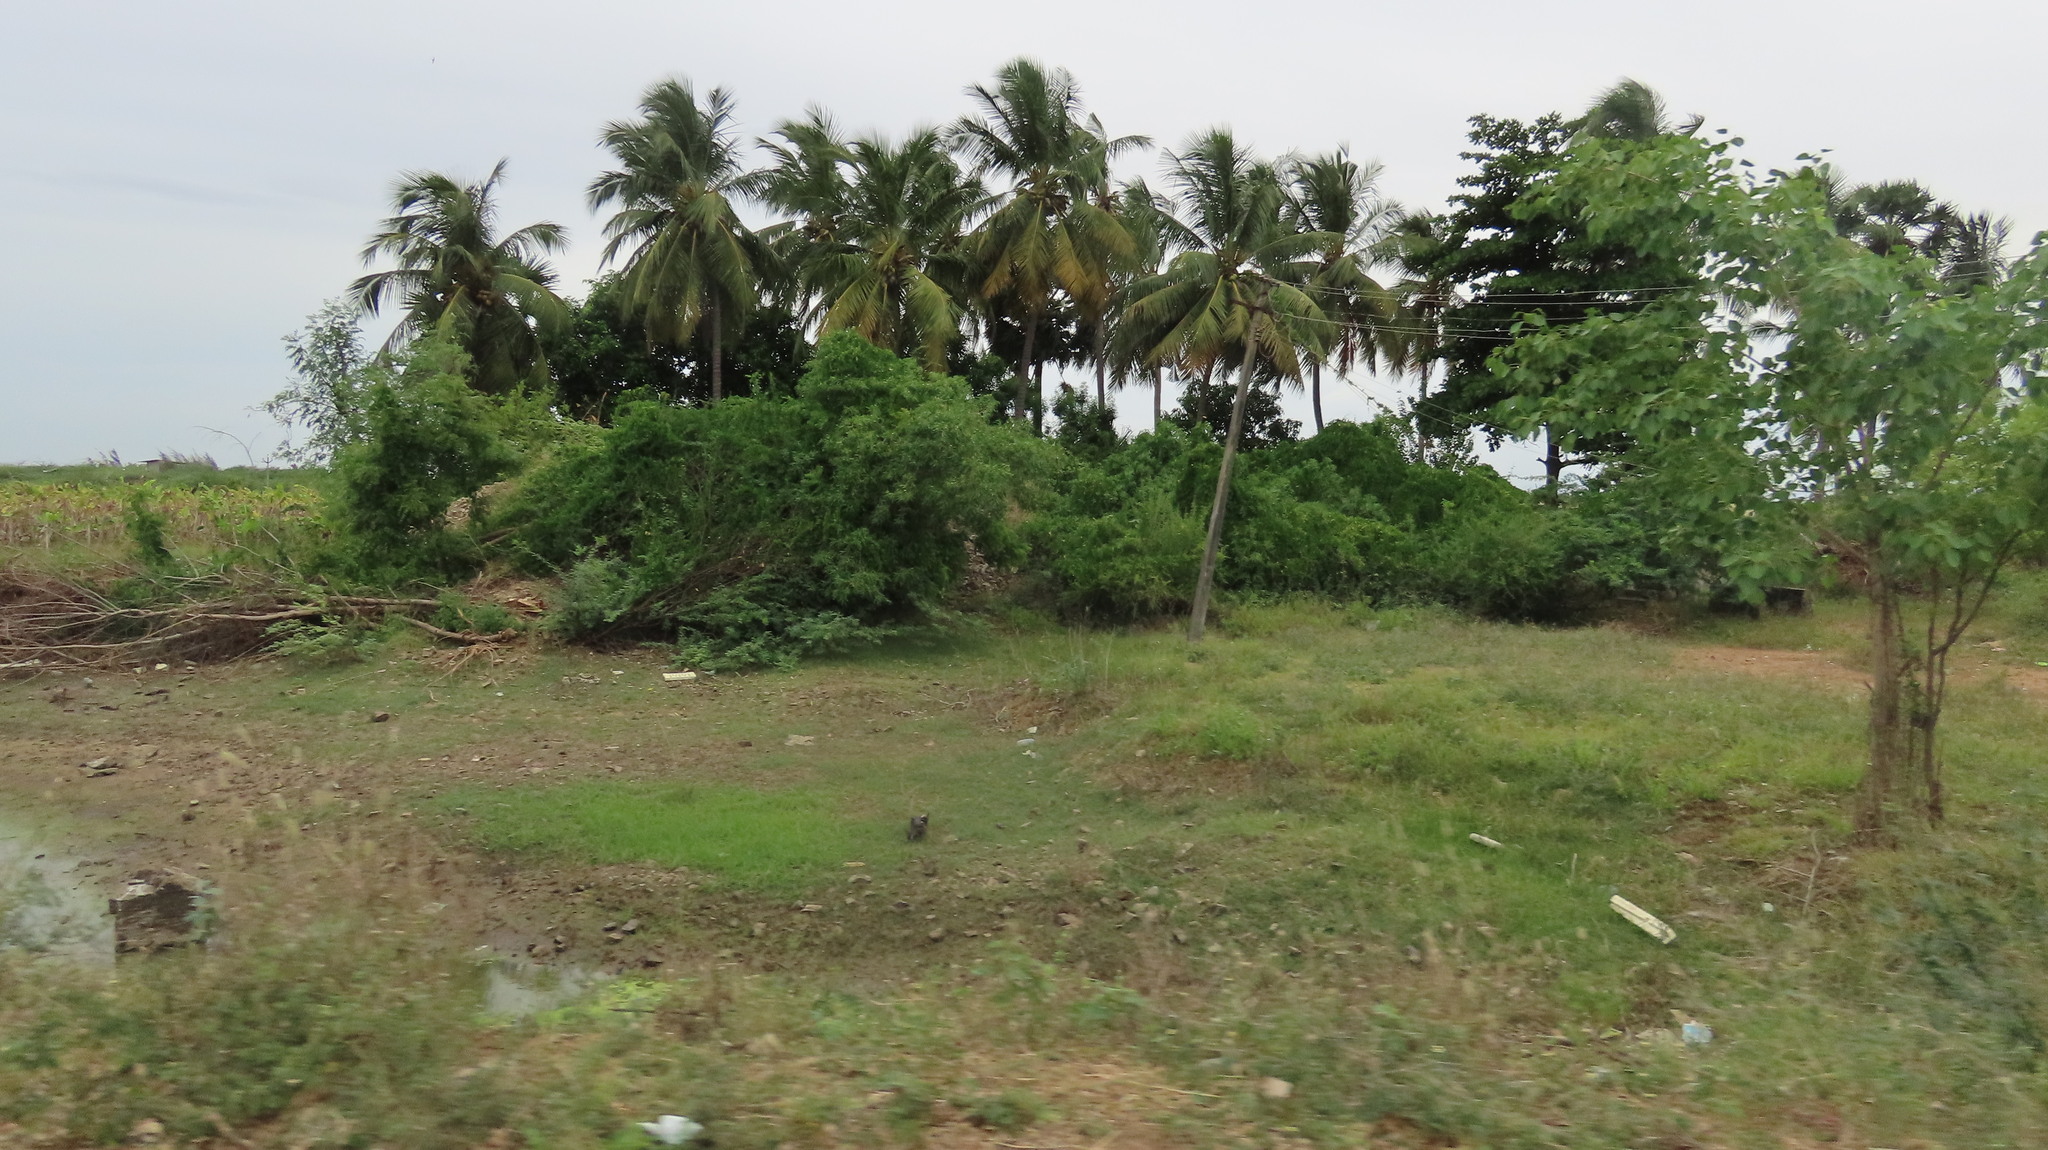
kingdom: Plantae
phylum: Tracheophyta
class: Liliopsida
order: Arecales
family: Arecaceae
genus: Cocos
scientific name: Cocos nucifera
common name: Coconut palm
